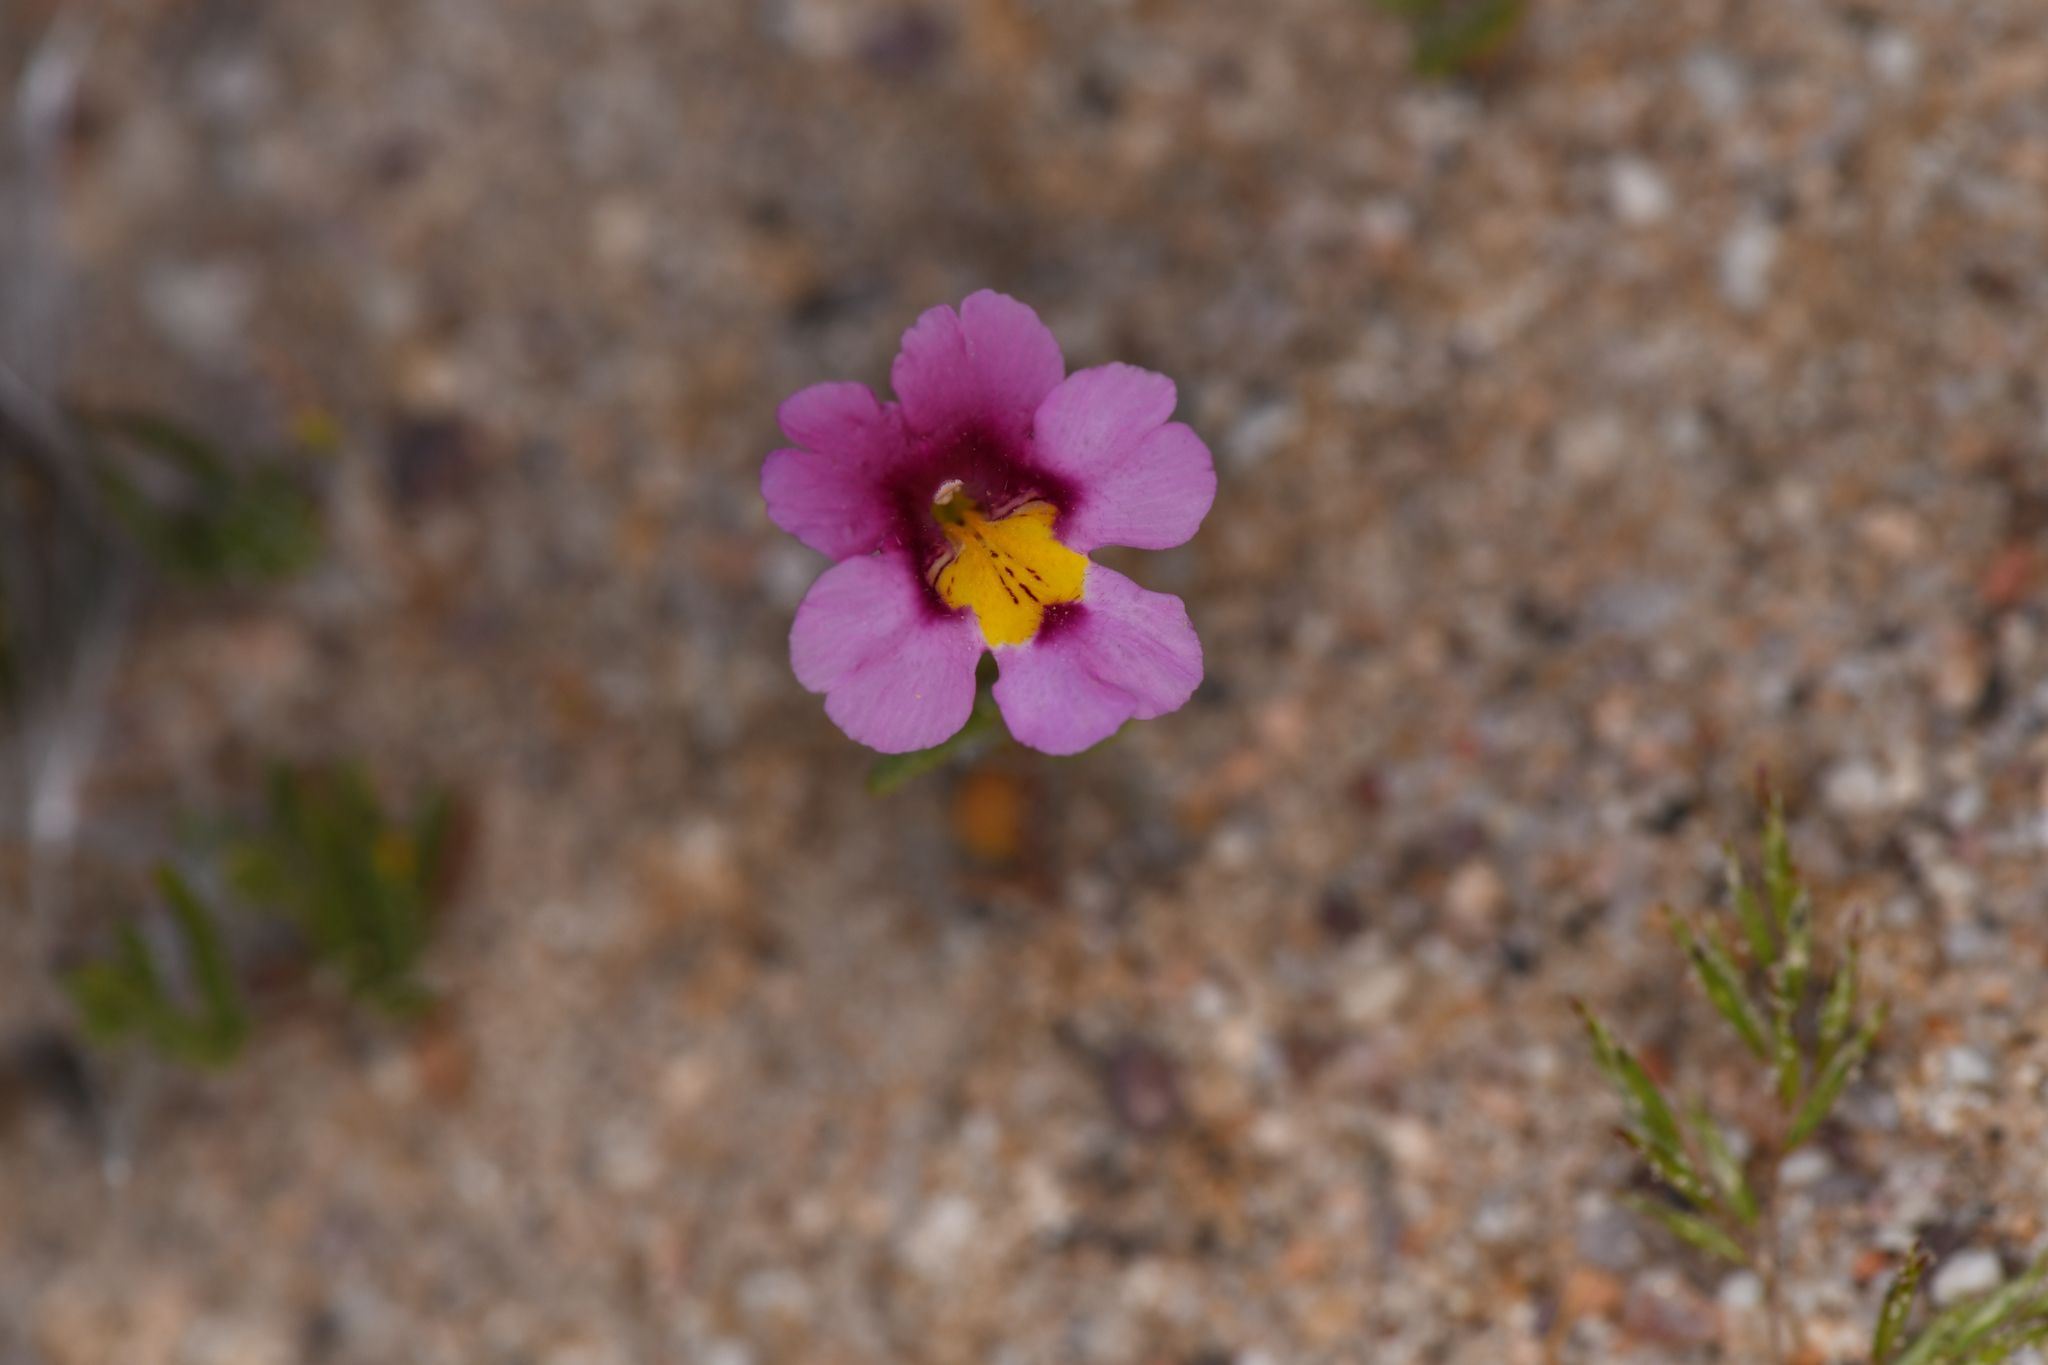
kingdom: Plantae
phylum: Tracheophyta
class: Magnoliopsida
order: Lamiales
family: Phrymaceae
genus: Erythranthe
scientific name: Erythranthe rhodopetra
